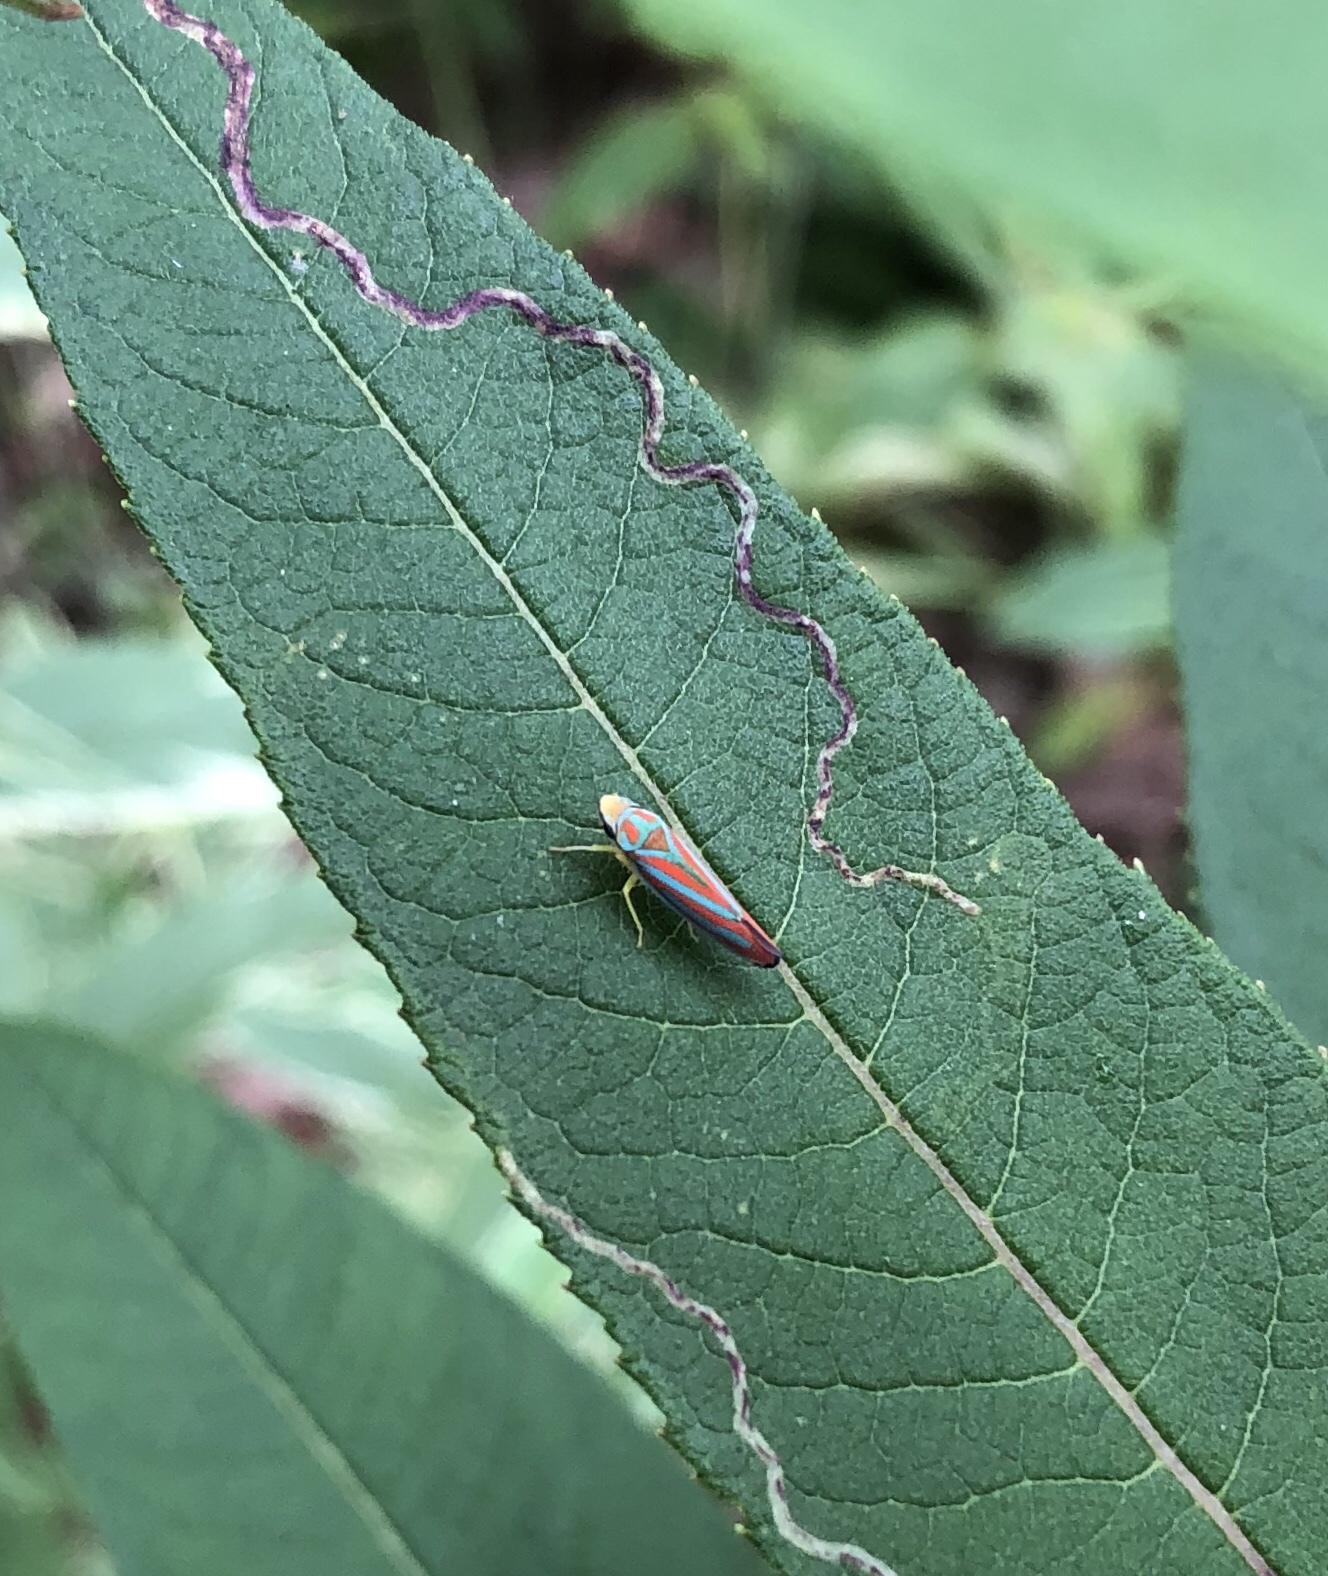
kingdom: Animalia
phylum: Arthropoda
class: Insecta
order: Hemiptera
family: Cicadellidae
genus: Graphocephala
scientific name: Graphocephala coccinea
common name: Candy-striped leafhopper
